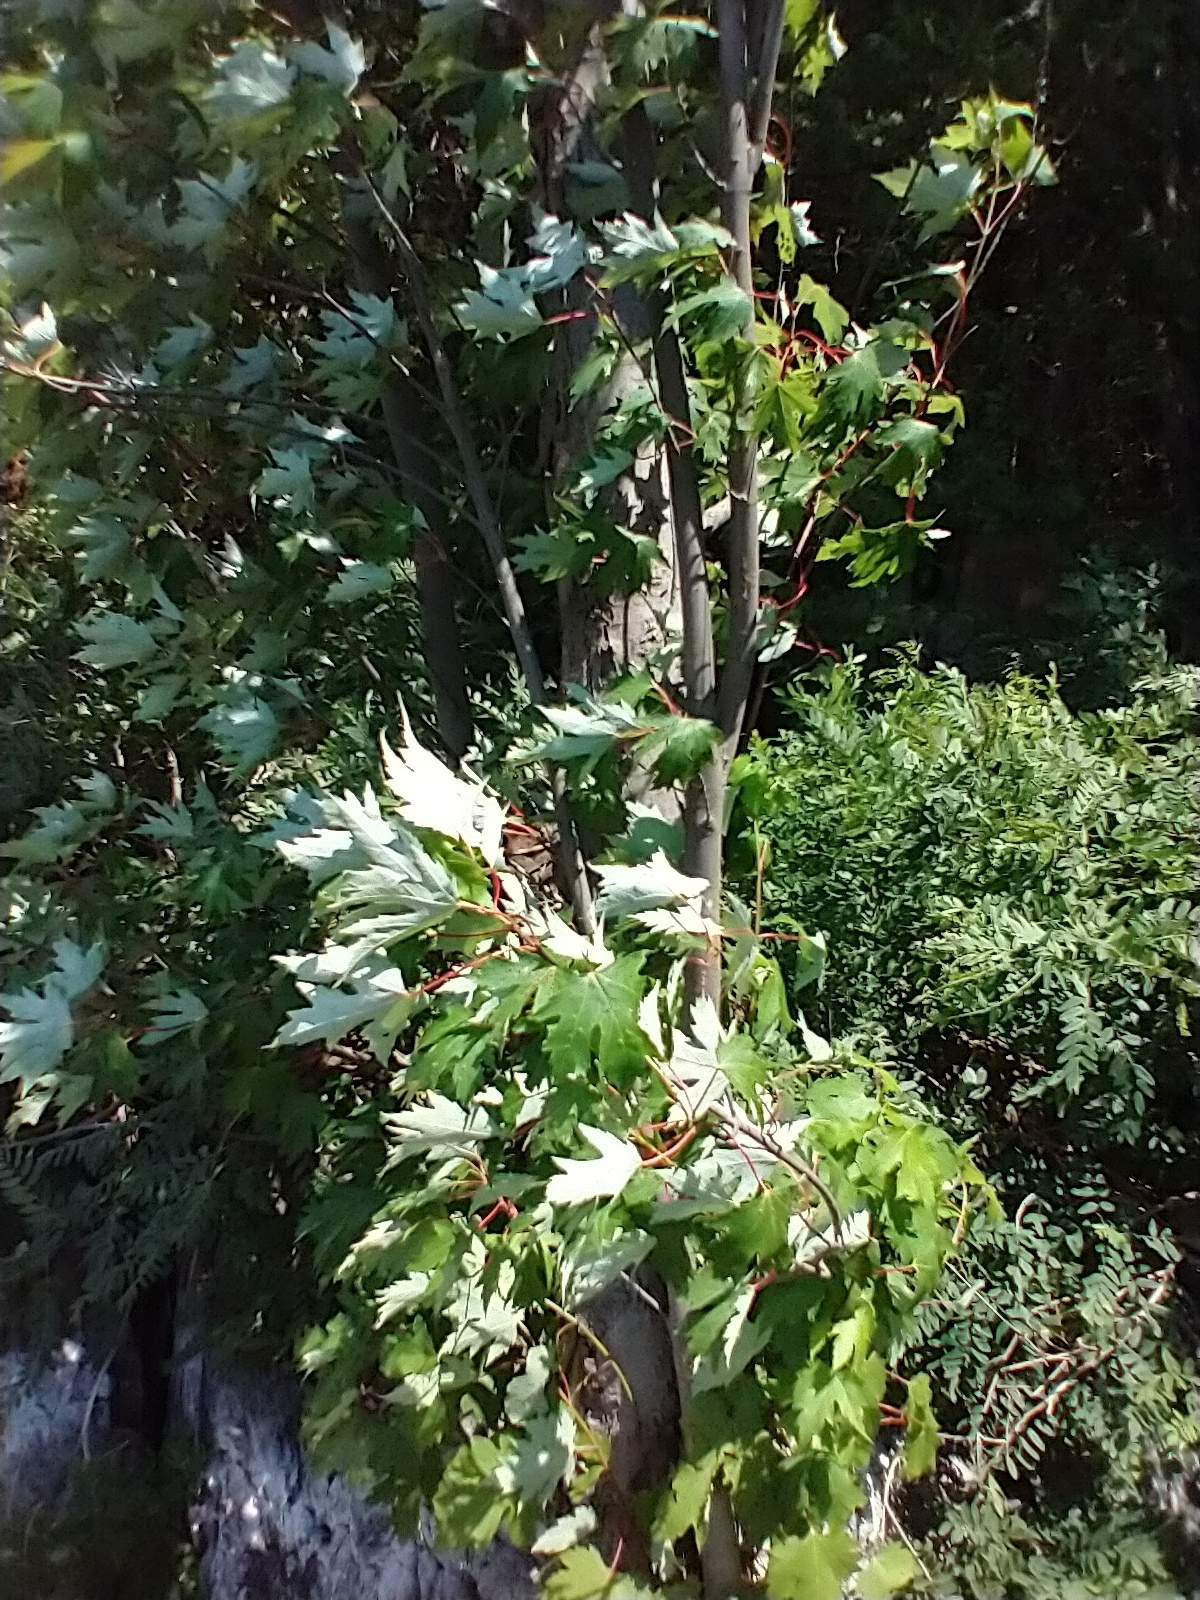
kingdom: Plantae
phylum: Tracheophyta
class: Magnoliopsida
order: Sapindales
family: Sapindaceae
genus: Acer
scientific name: Acer saccharinum
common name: Silver maple
